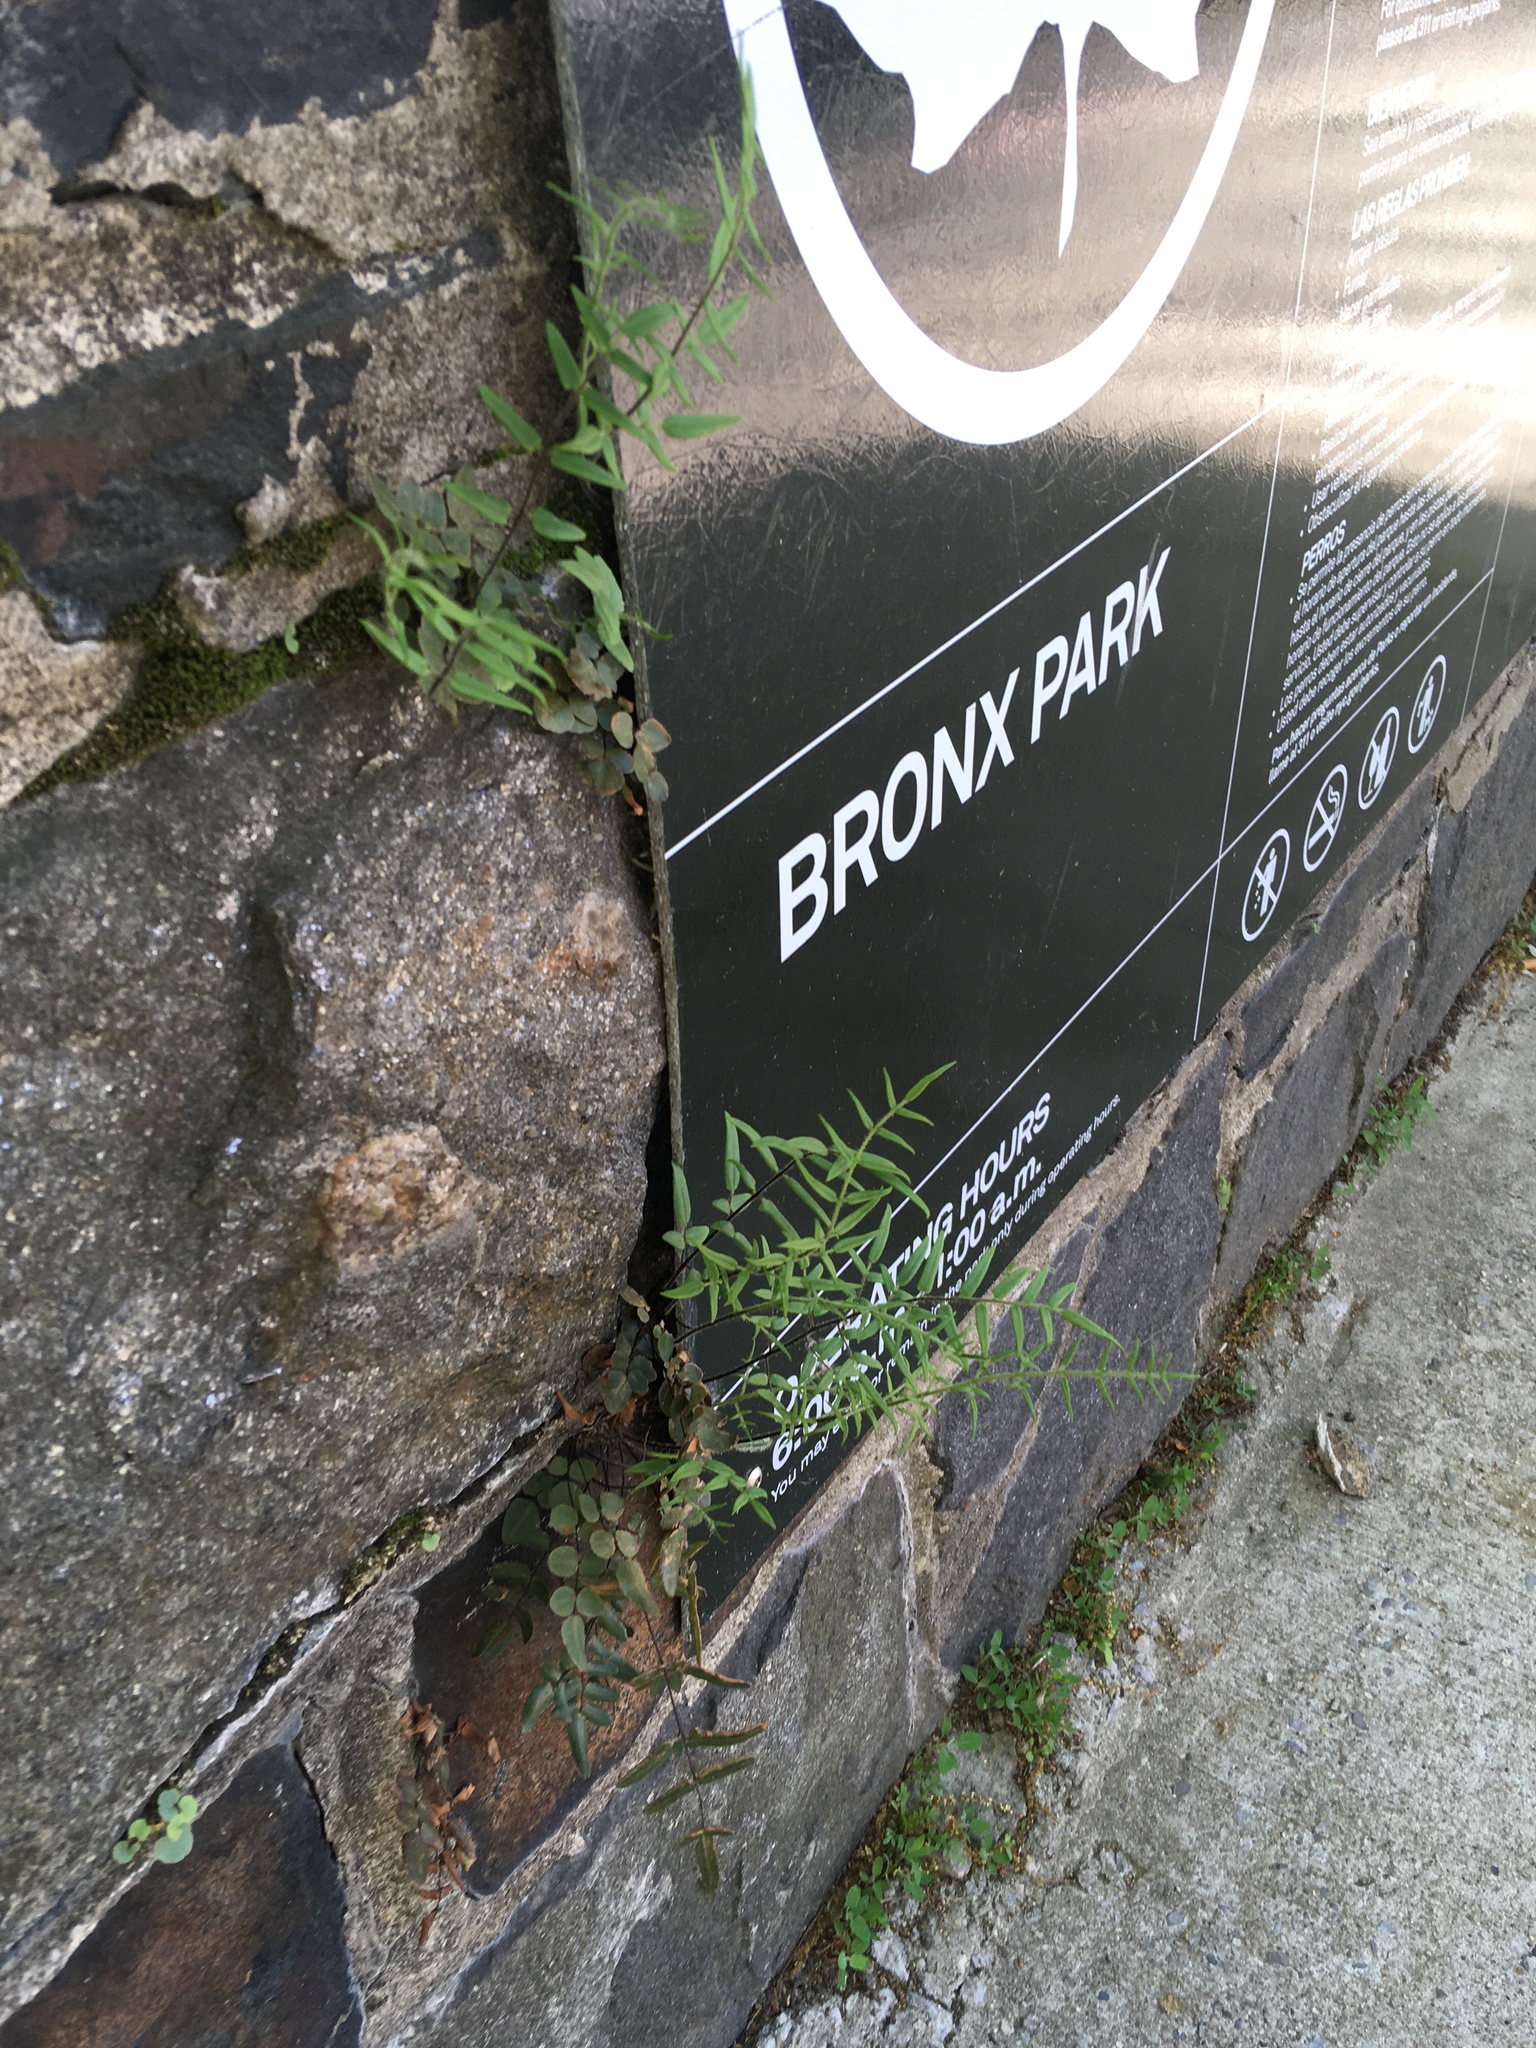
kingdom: Plantae
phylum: Tracheophyta
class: Polypodiopsida
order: Polypodiales
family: Pteridaceae
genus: Pellaea
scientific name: Pellaea atropurpurea
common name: Hairy cliffbrake
